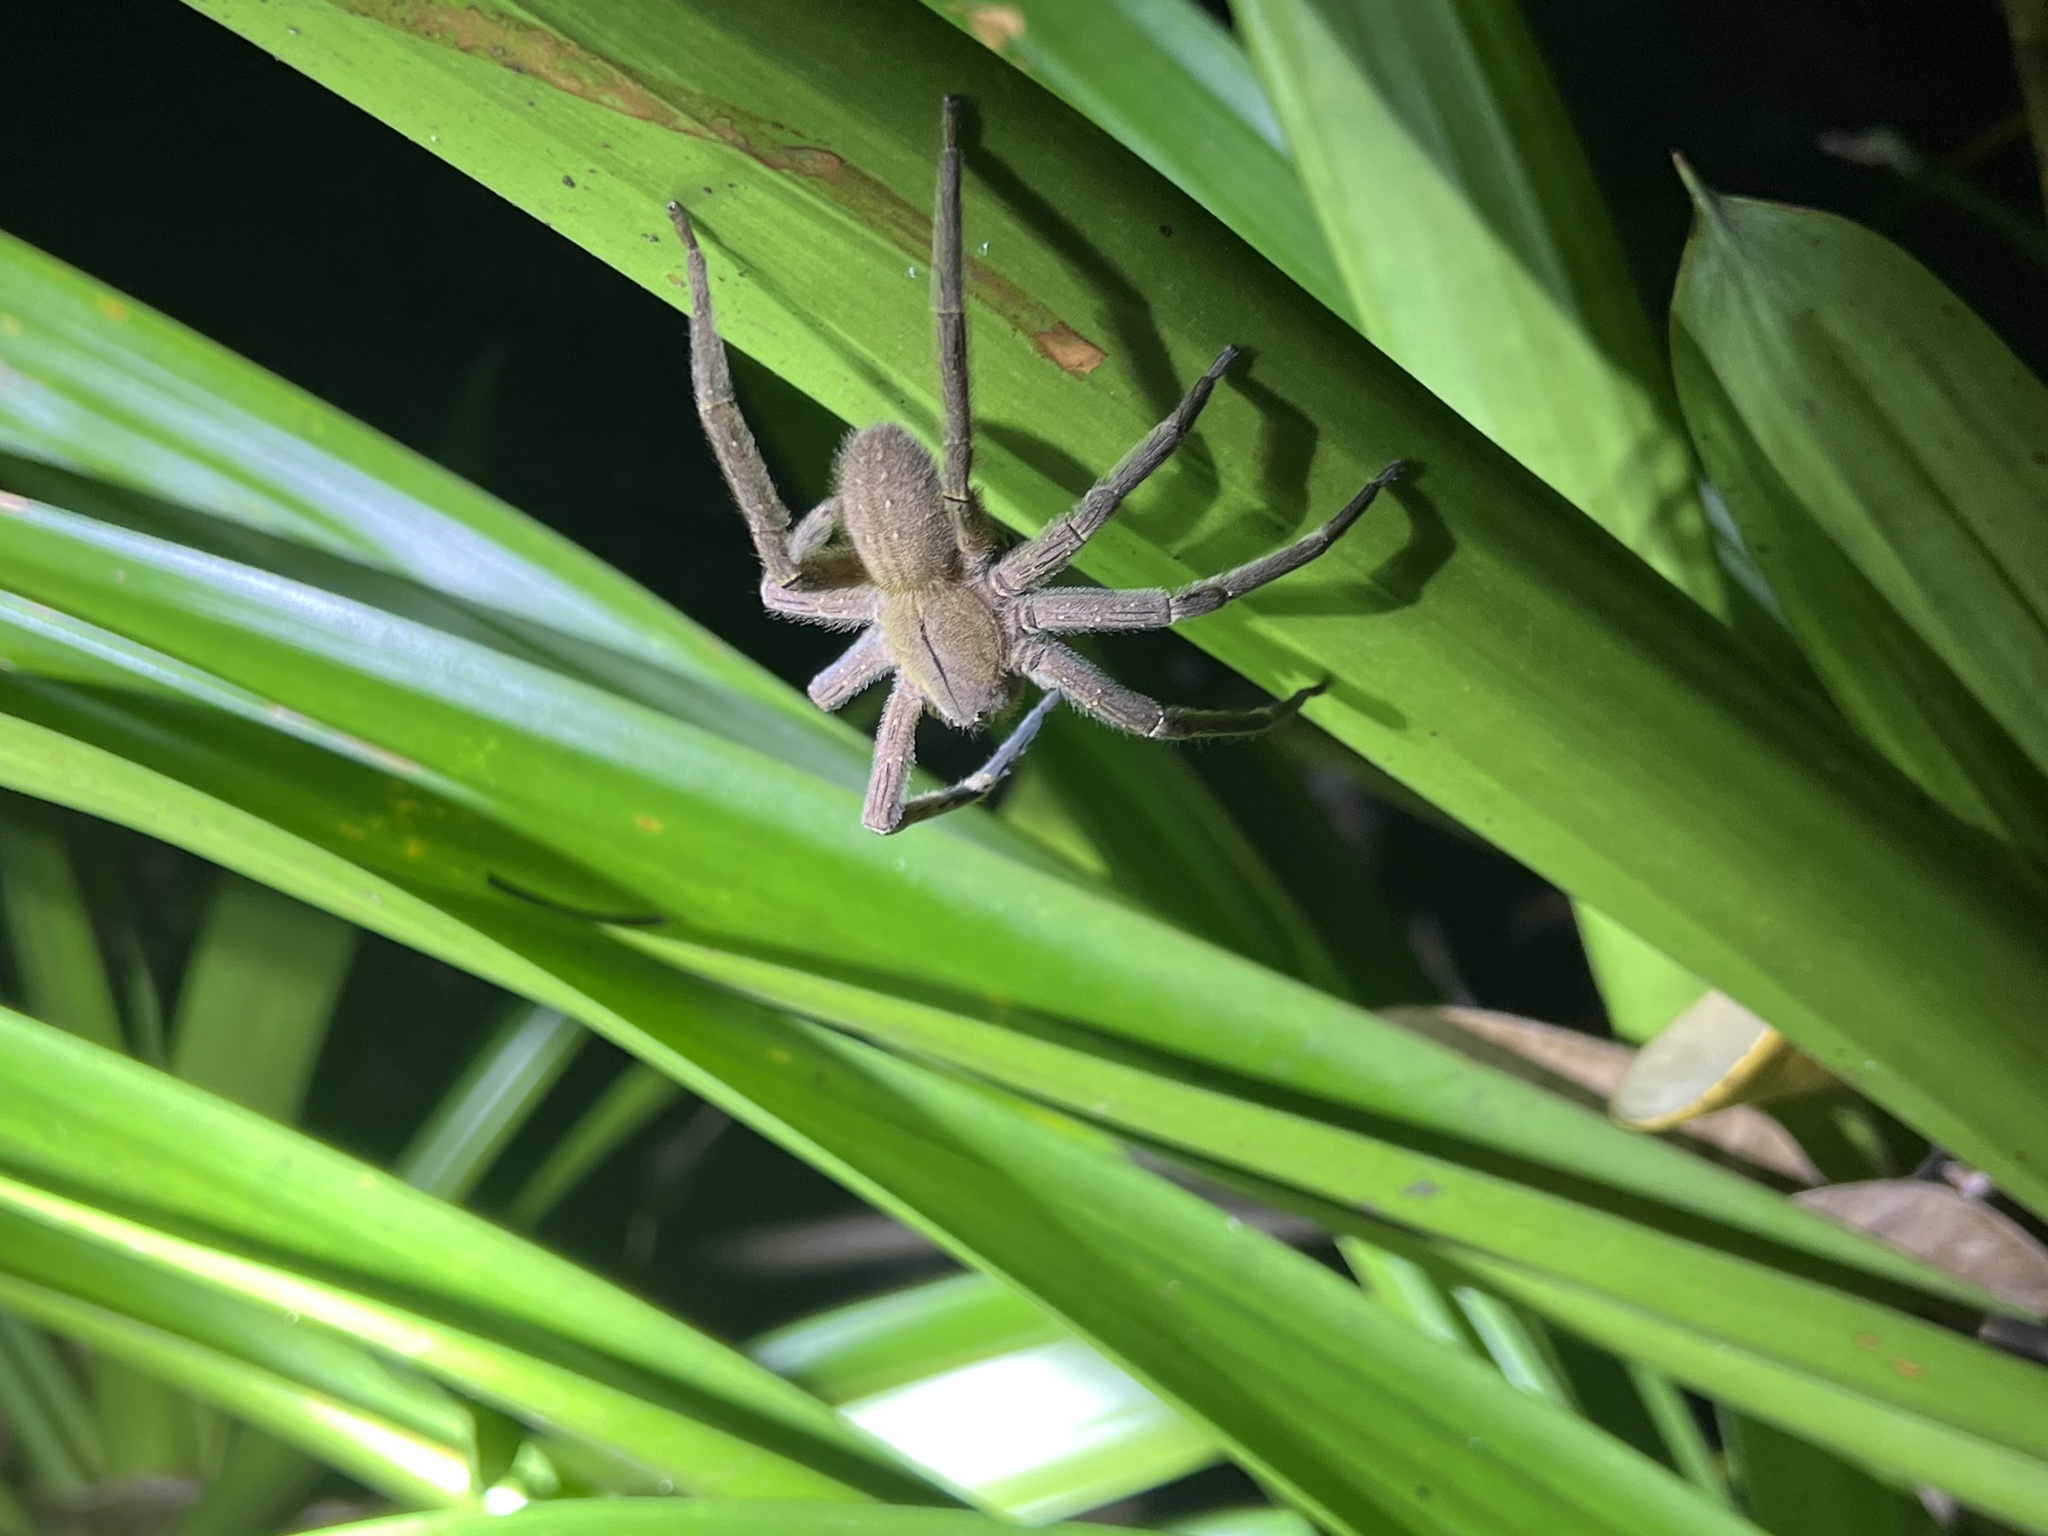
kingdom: Animalia
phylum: Arthropoda
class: Arachnida
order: Araneae
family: Ctenidae
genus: Phoneutria
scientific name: Phoneutria depilata
